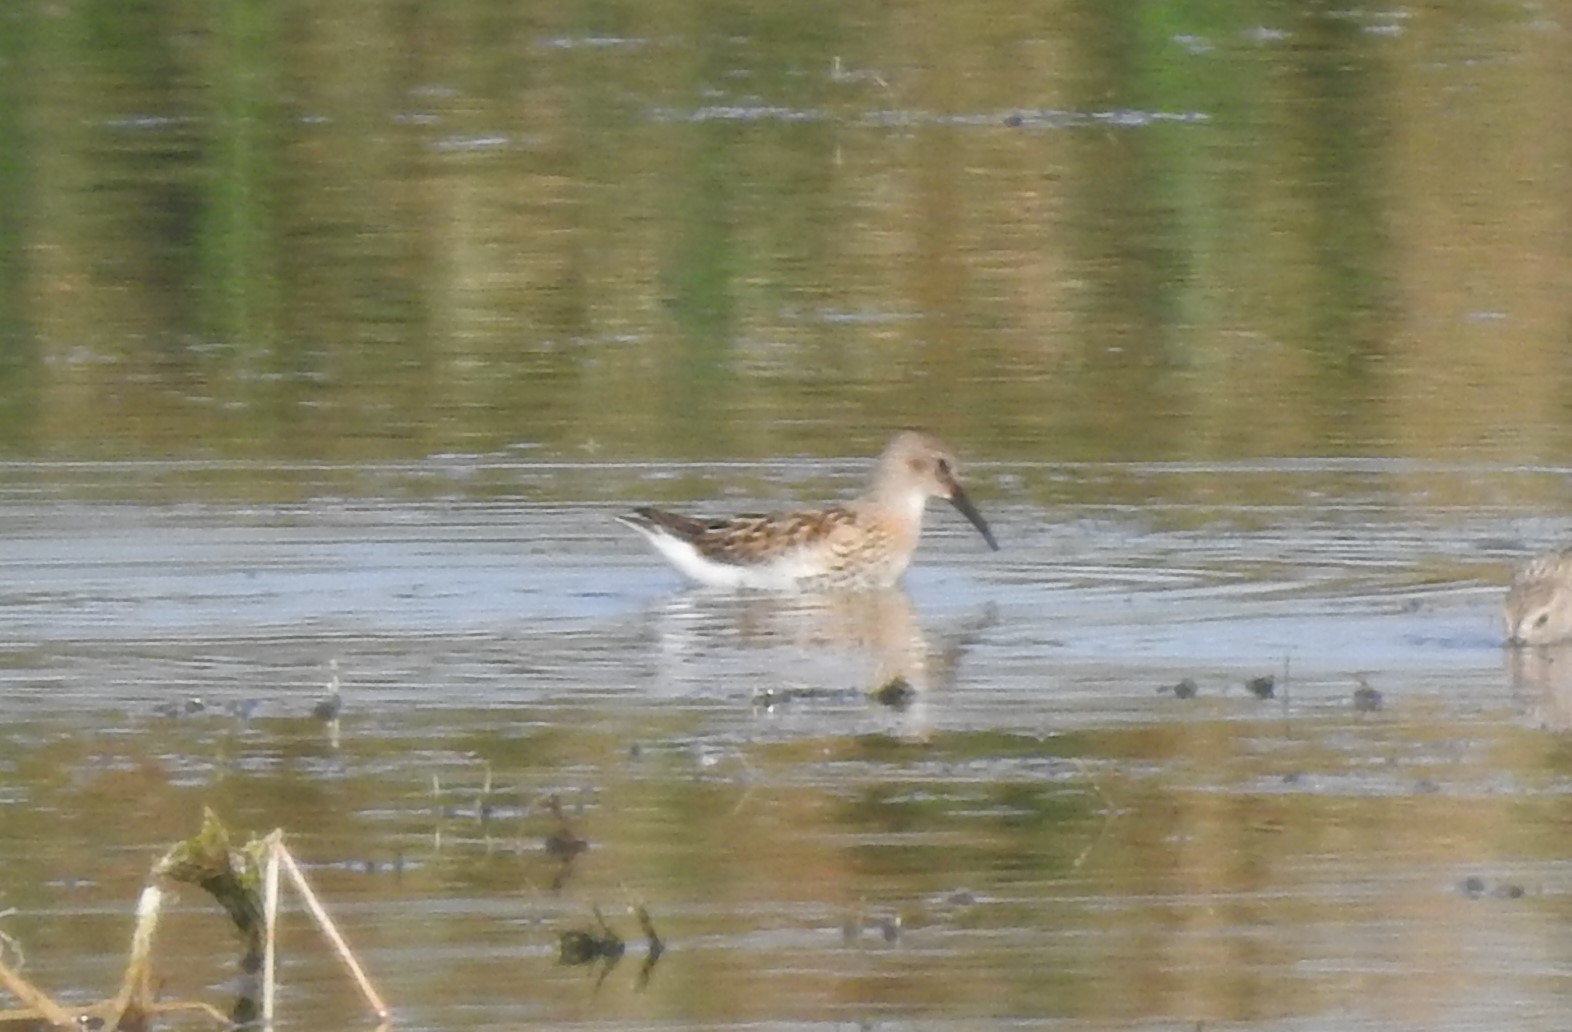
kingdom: Animalia
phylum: Chordata
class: Aves
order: Charadriiformes
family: Scolopacidae
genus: Calidris
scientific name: Calidris alpina
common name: Dunlin
